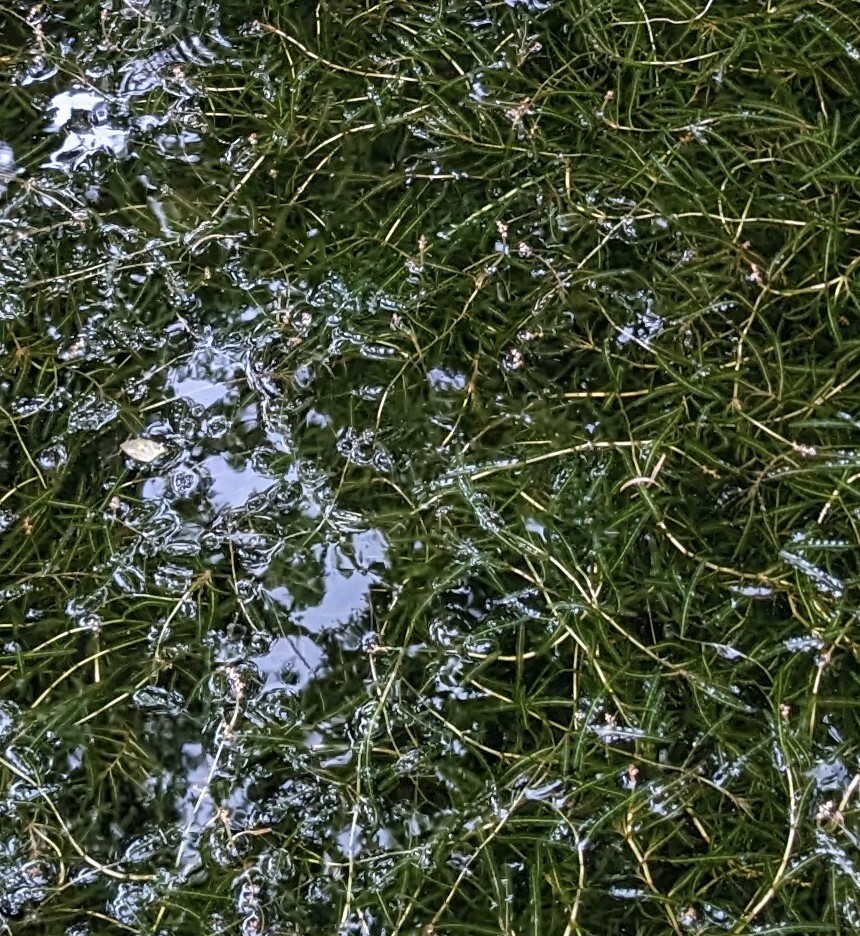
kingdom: Plantae
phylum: Tracheophyta
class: Liliopsida
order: Alismatales
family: Potamogetonaceae
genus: Potamogeton
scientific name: Potamogeton crispus
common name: Curled pondweed
